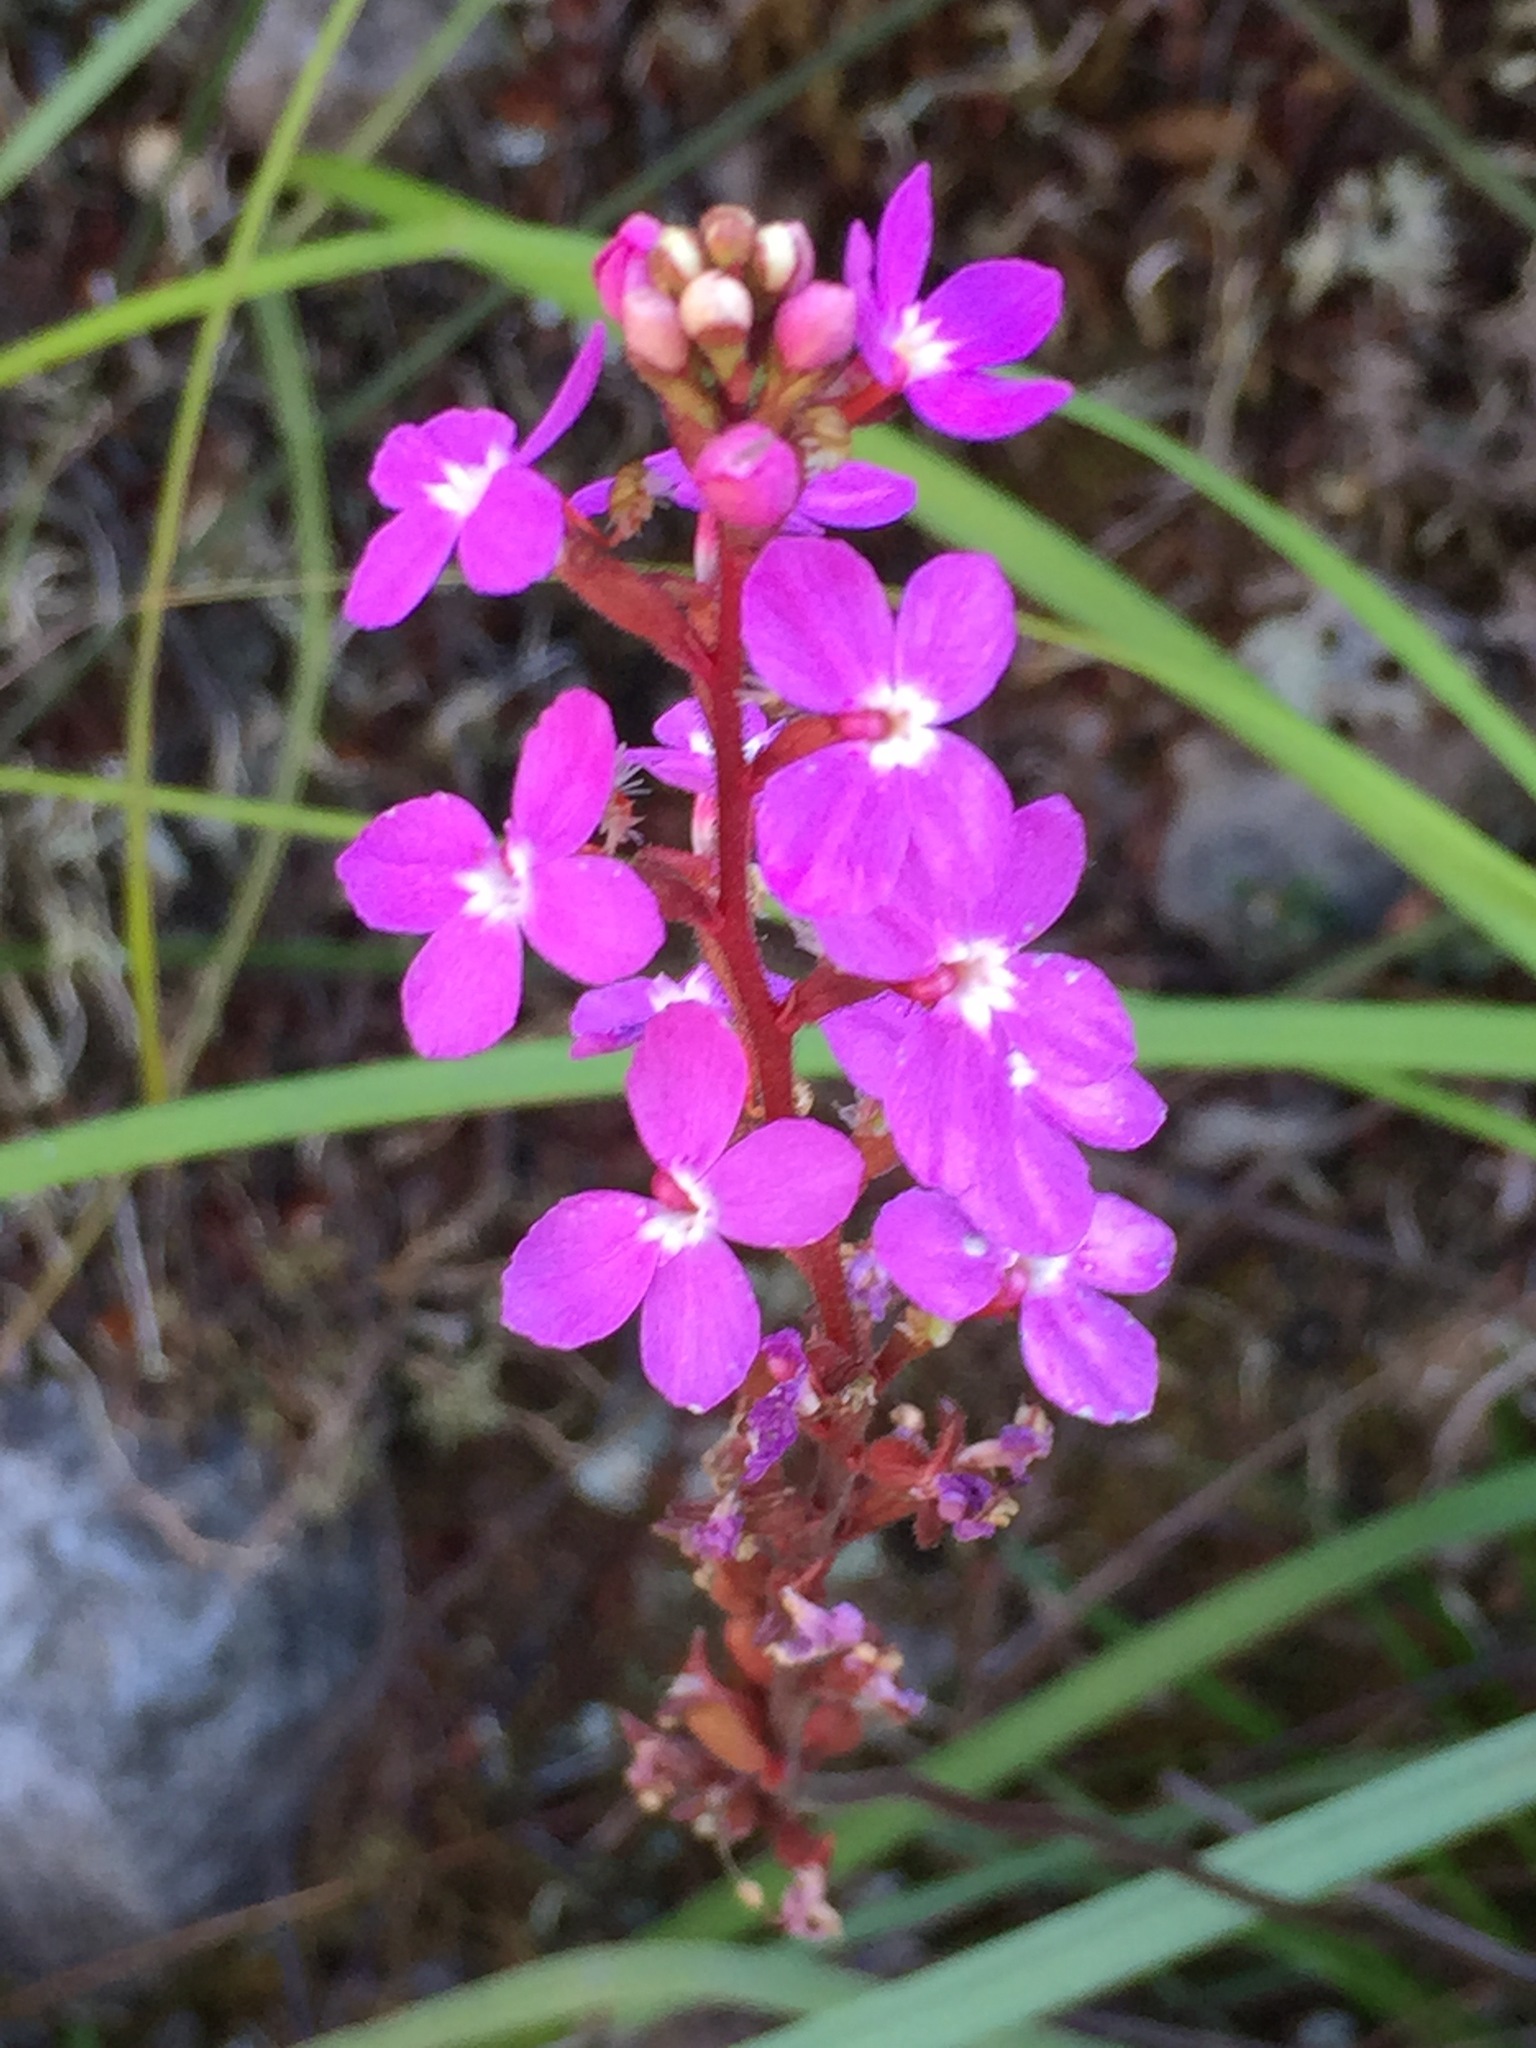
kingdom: Plantae
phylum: Tracheophyta
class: Magnoliopsida
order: Asterales
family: Stylidiaceae
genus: Stylidium
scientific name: Stylidium armeria
